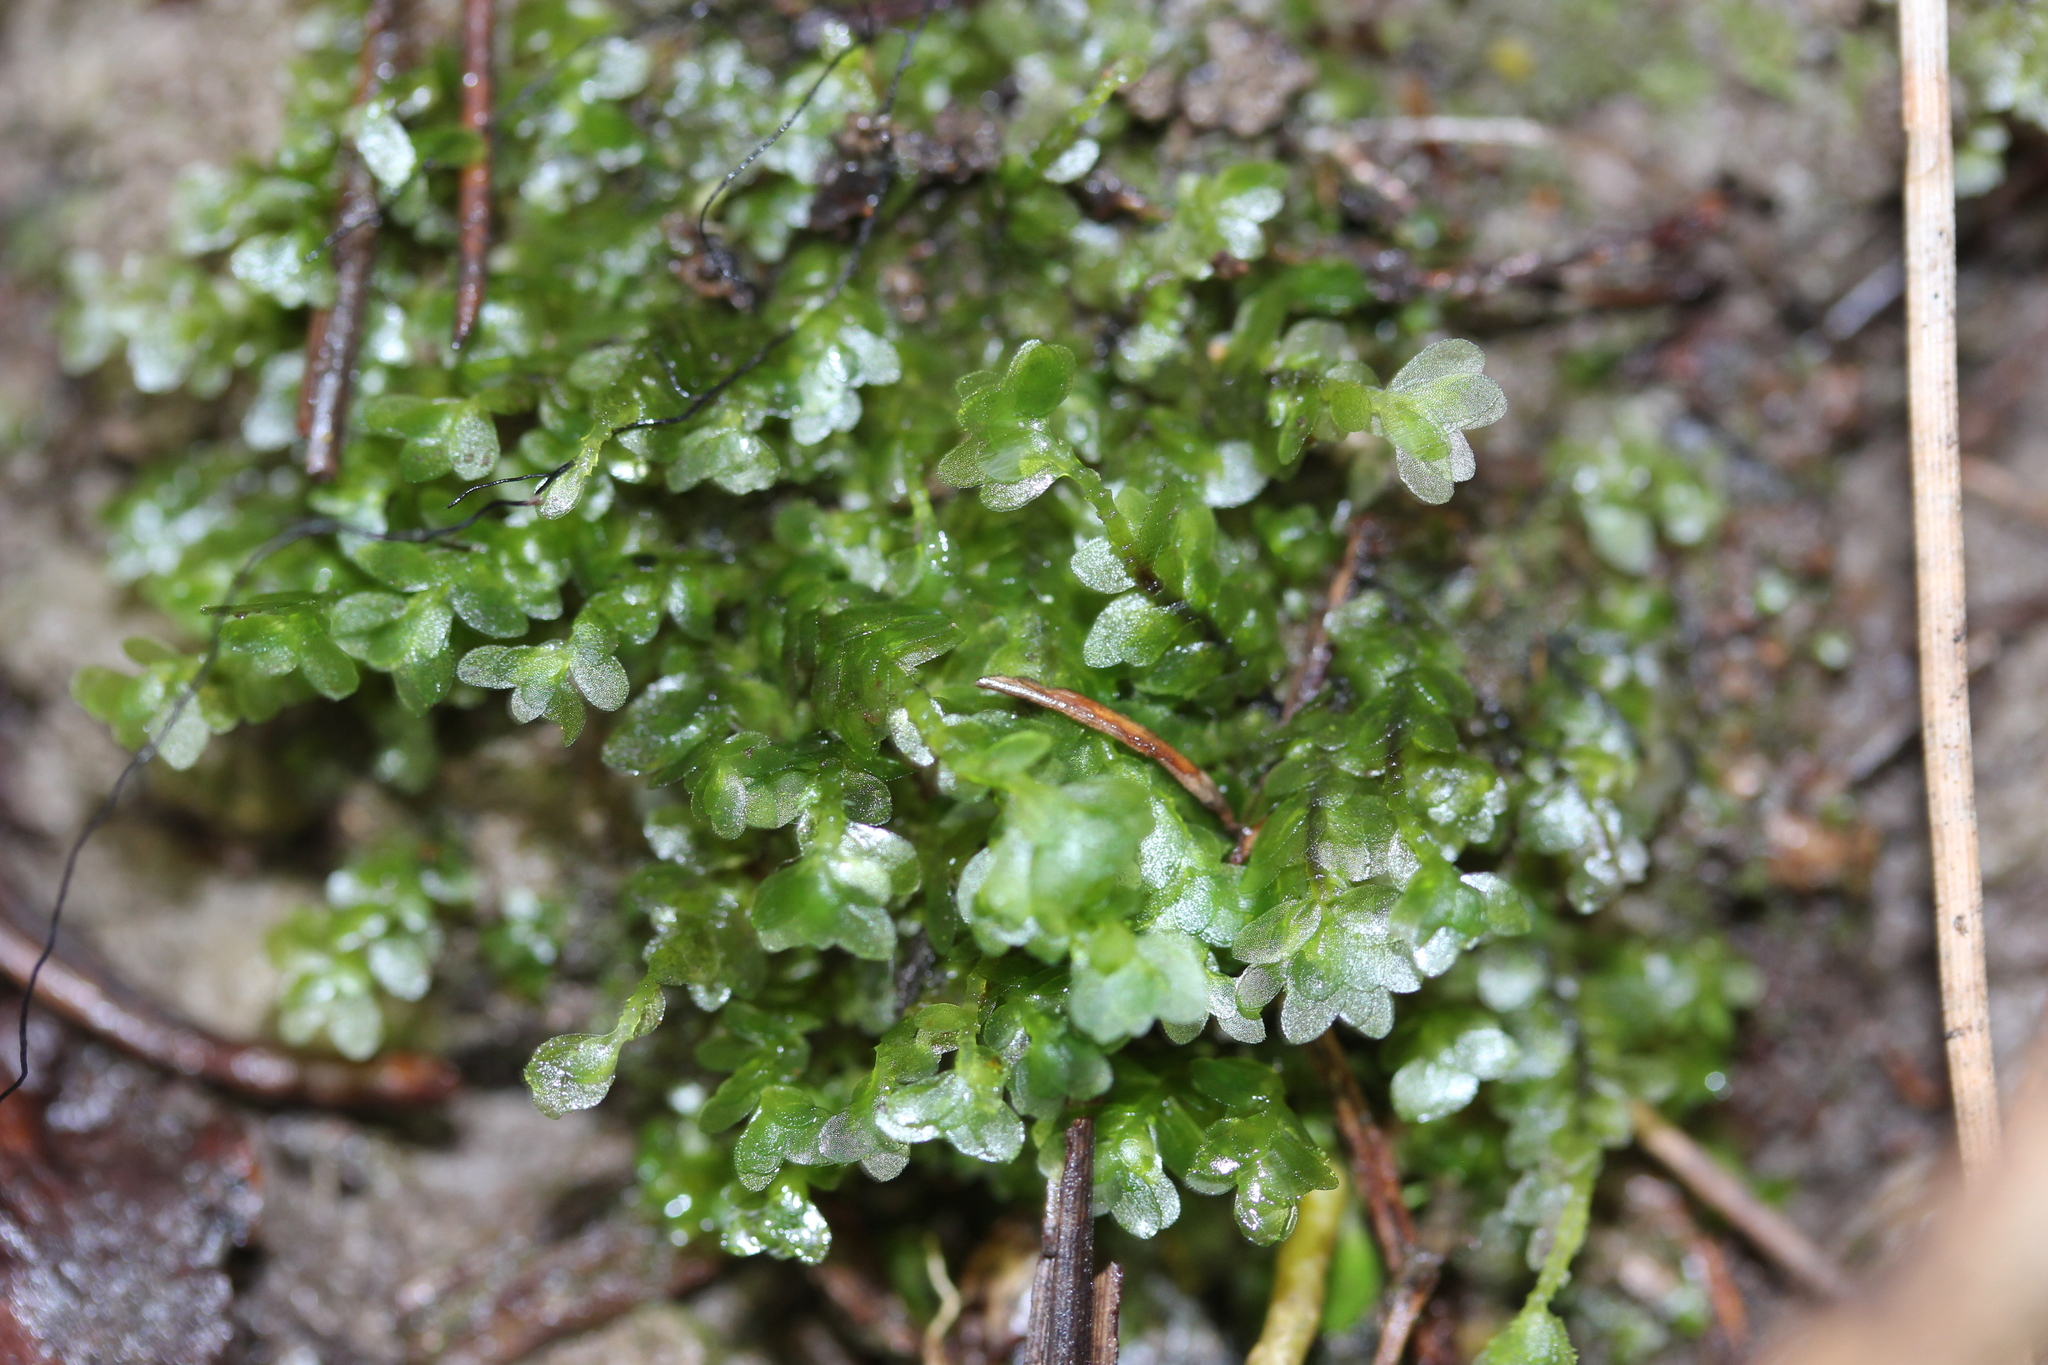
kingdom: Plantae
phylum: Bryophyta
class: Bryopsida
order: Hookeriales
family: Daltoniaceae
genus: Achrophyllum
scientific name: Achrophyllum dentatum
